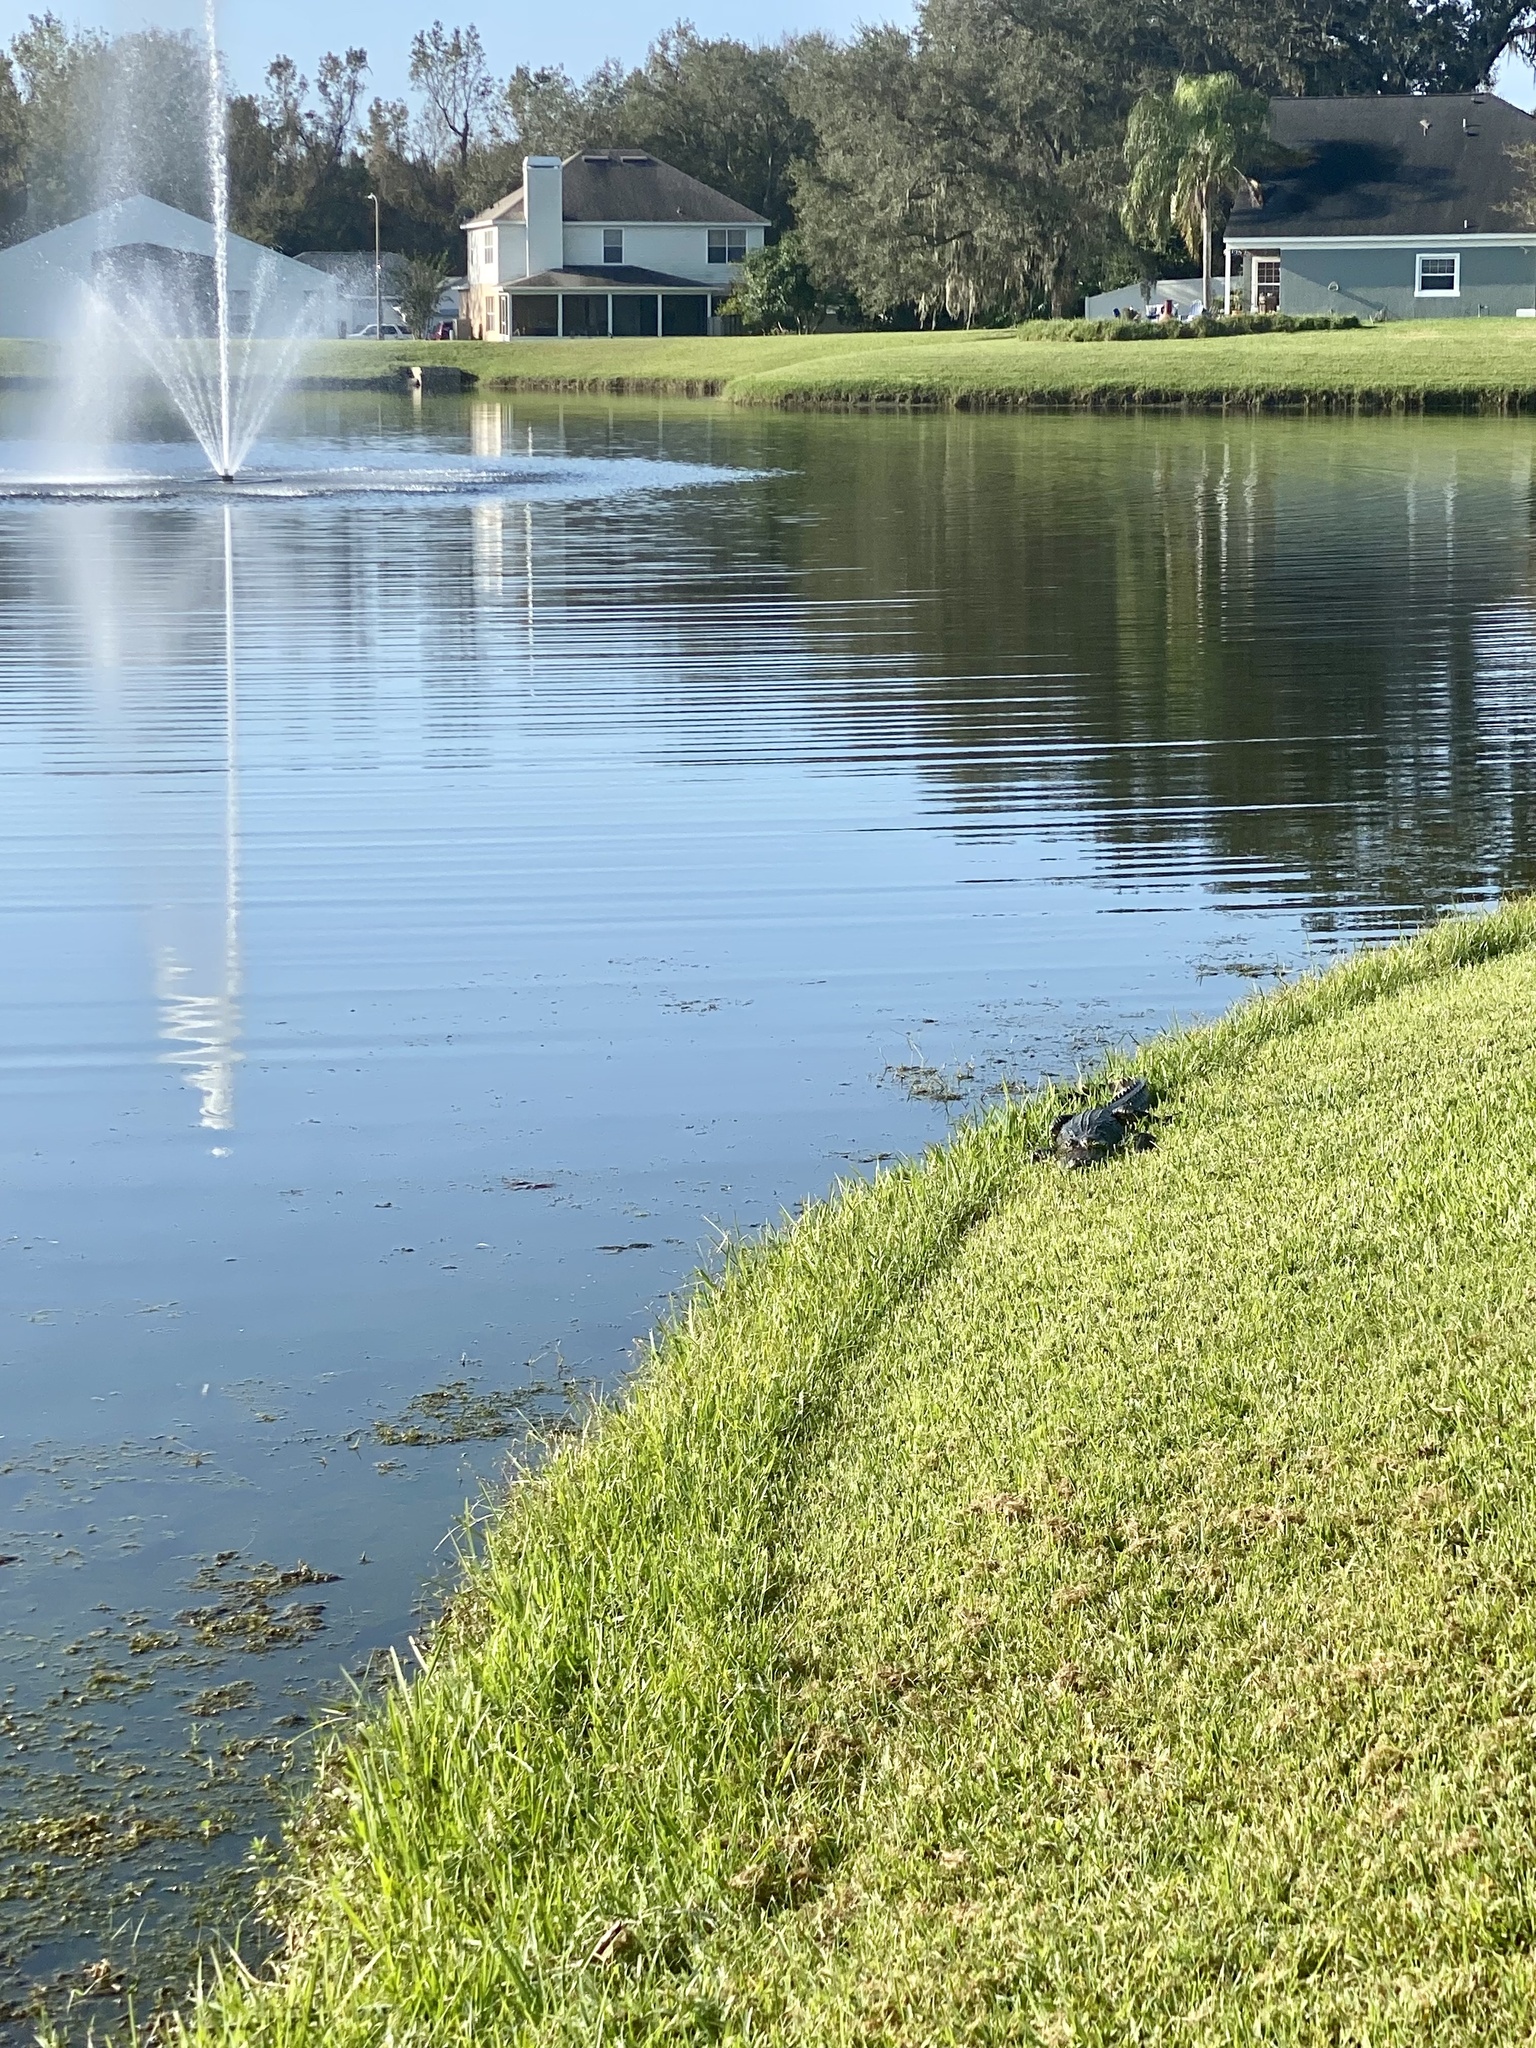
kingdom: Animalia
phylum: Chordata
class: Crocodylia
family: Alligatoridae
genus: Alligator
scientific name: Alligator mississippiensis
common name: American alligator
